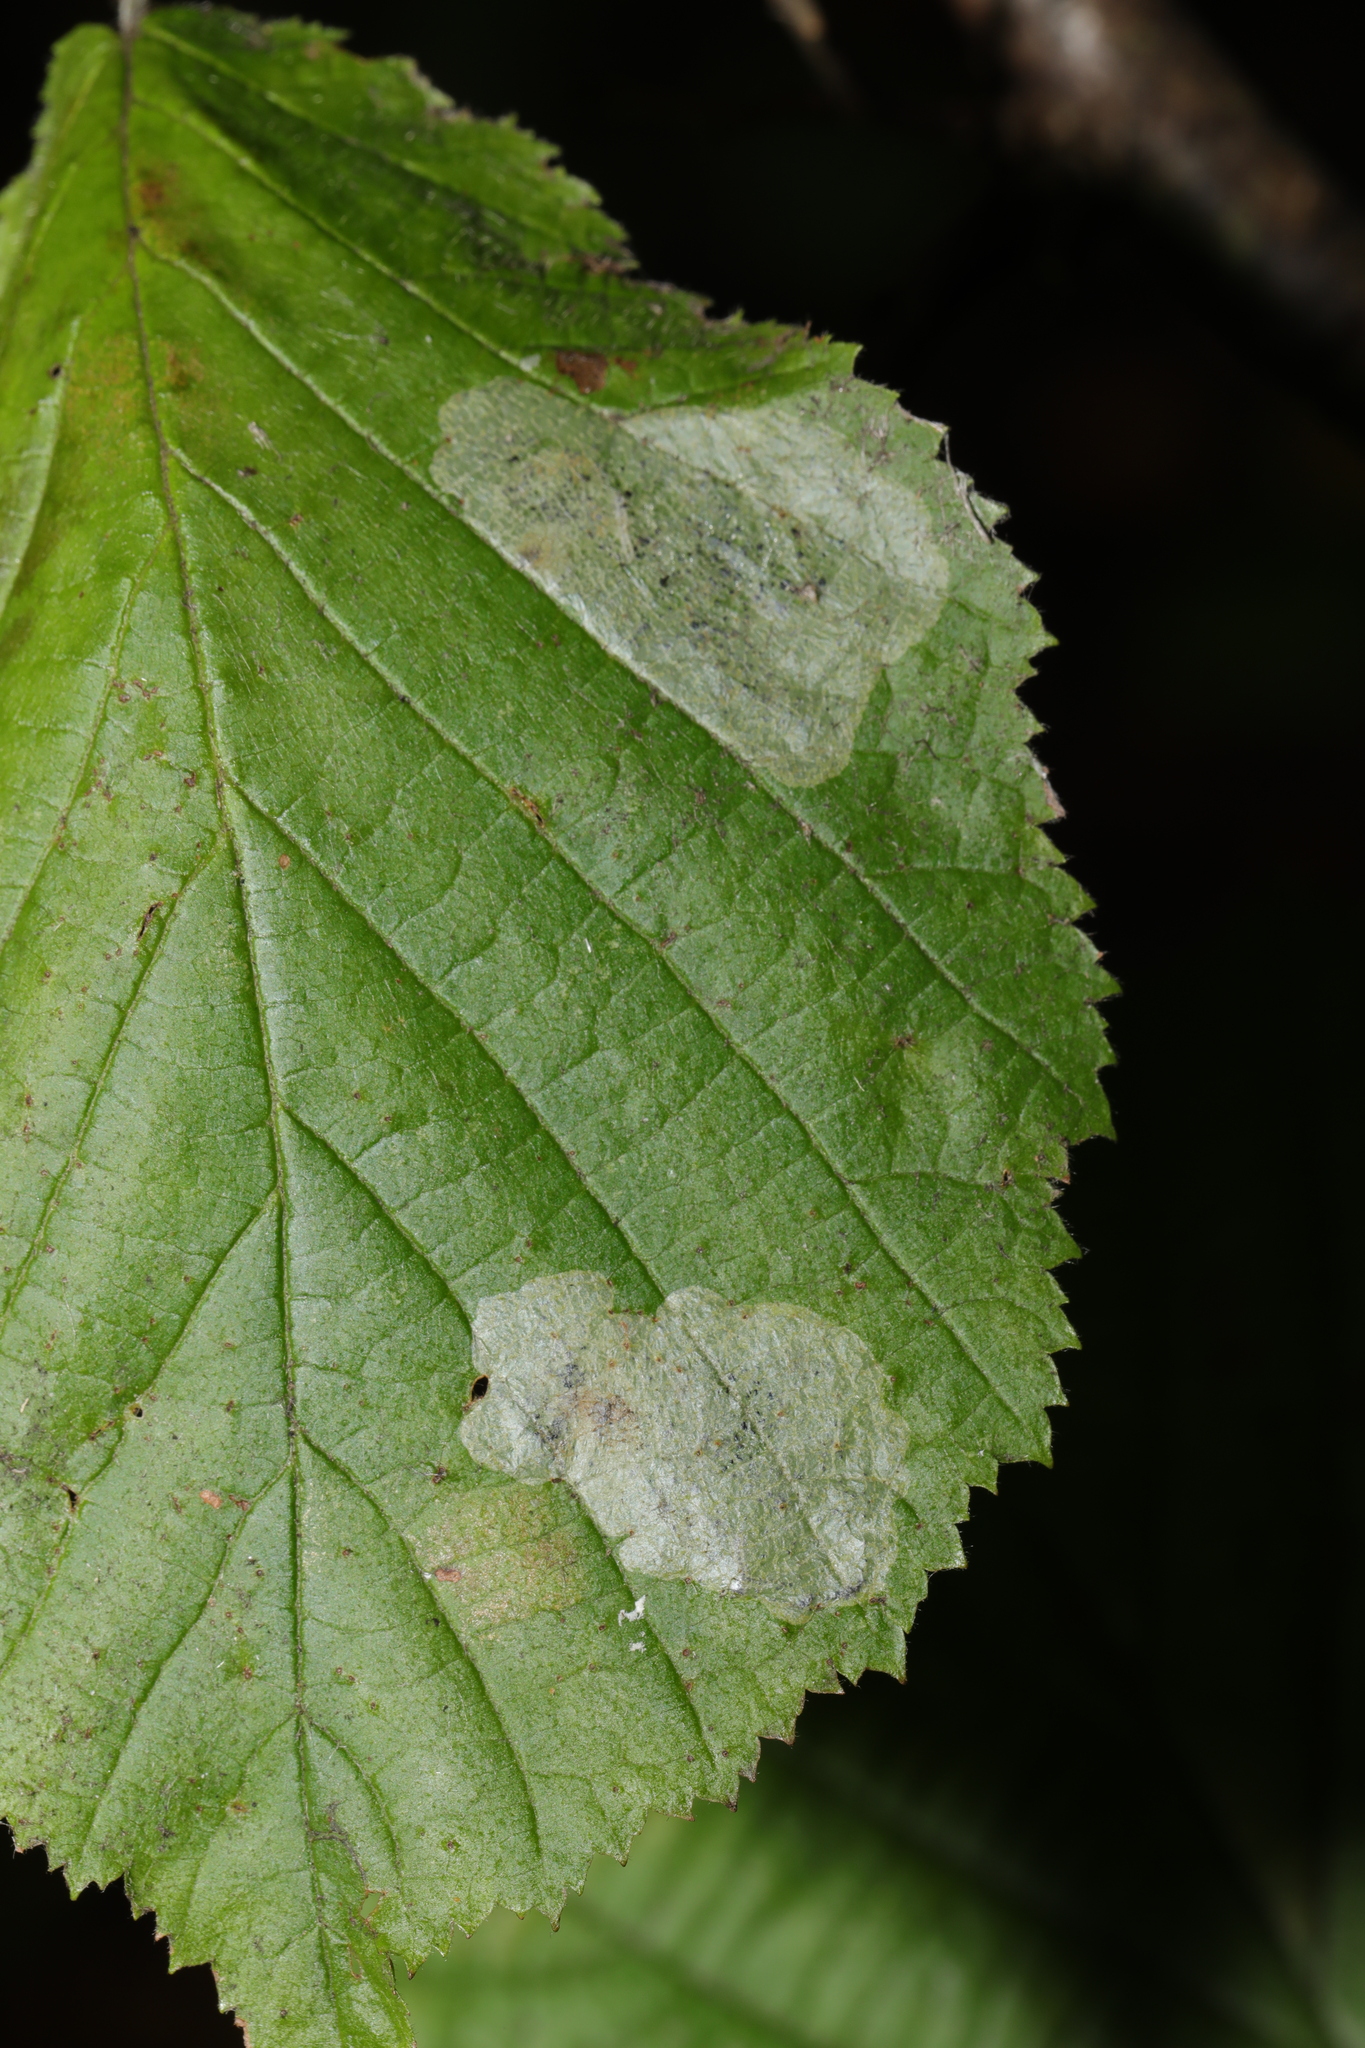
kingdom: Animalia
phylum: Arthropoda
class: Insecta
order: Lepidoptera
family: Gracillariidae
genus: Phyllonorycter
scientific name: Phyllonorycter coryli
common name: Nut-leaf blister moth
